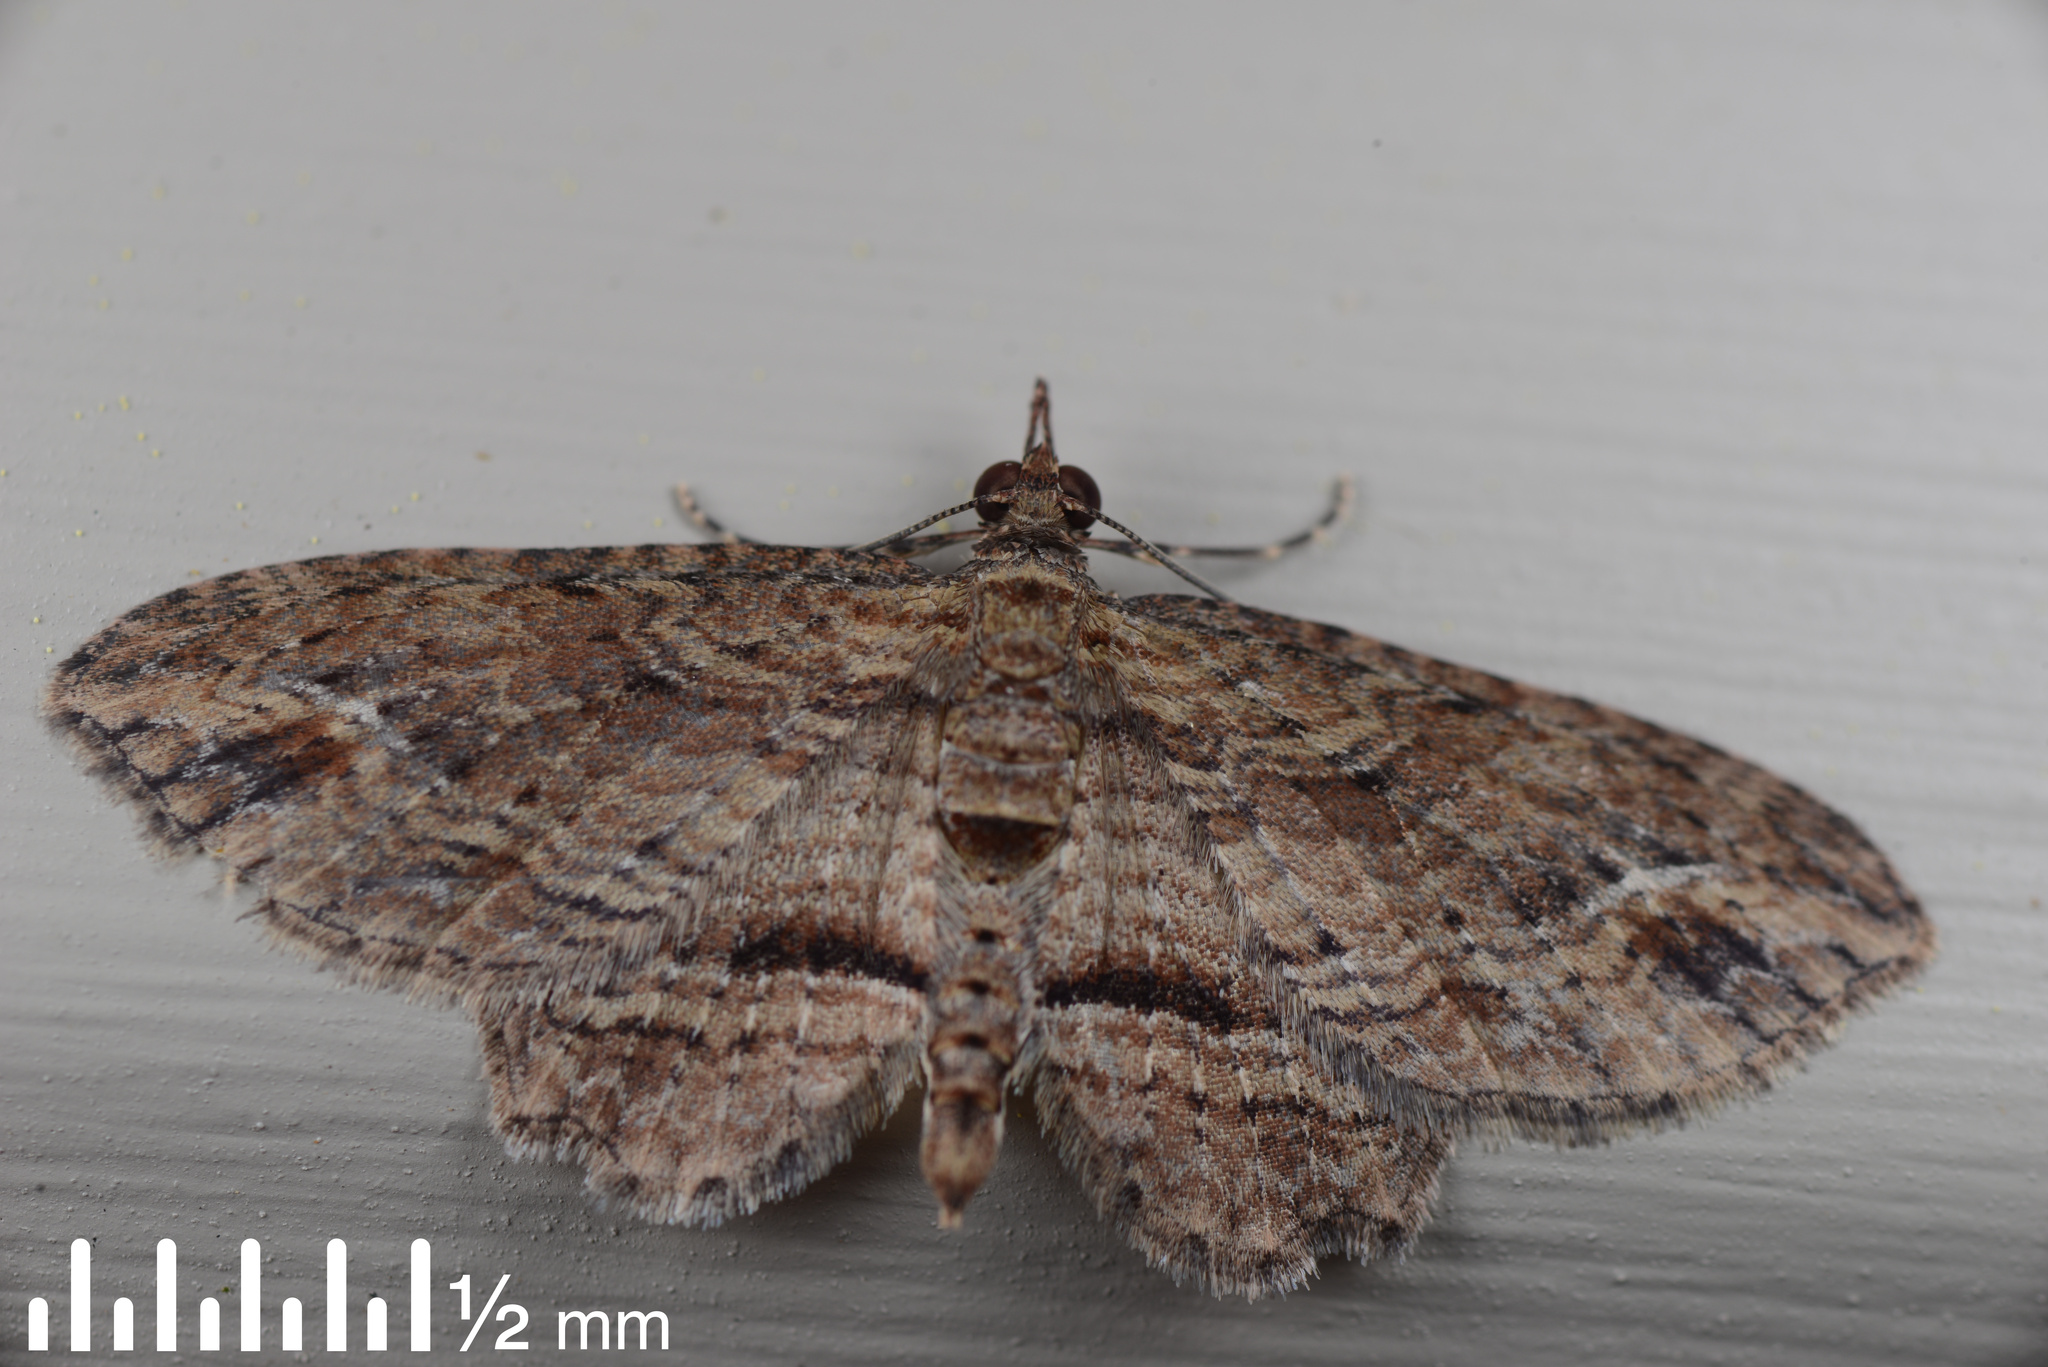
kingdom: Animalia
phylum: Arthropoda
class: Insecta
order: Lepidoptera
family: Geometridae
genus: Chloroclystis
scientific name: Chloroclystis filata
